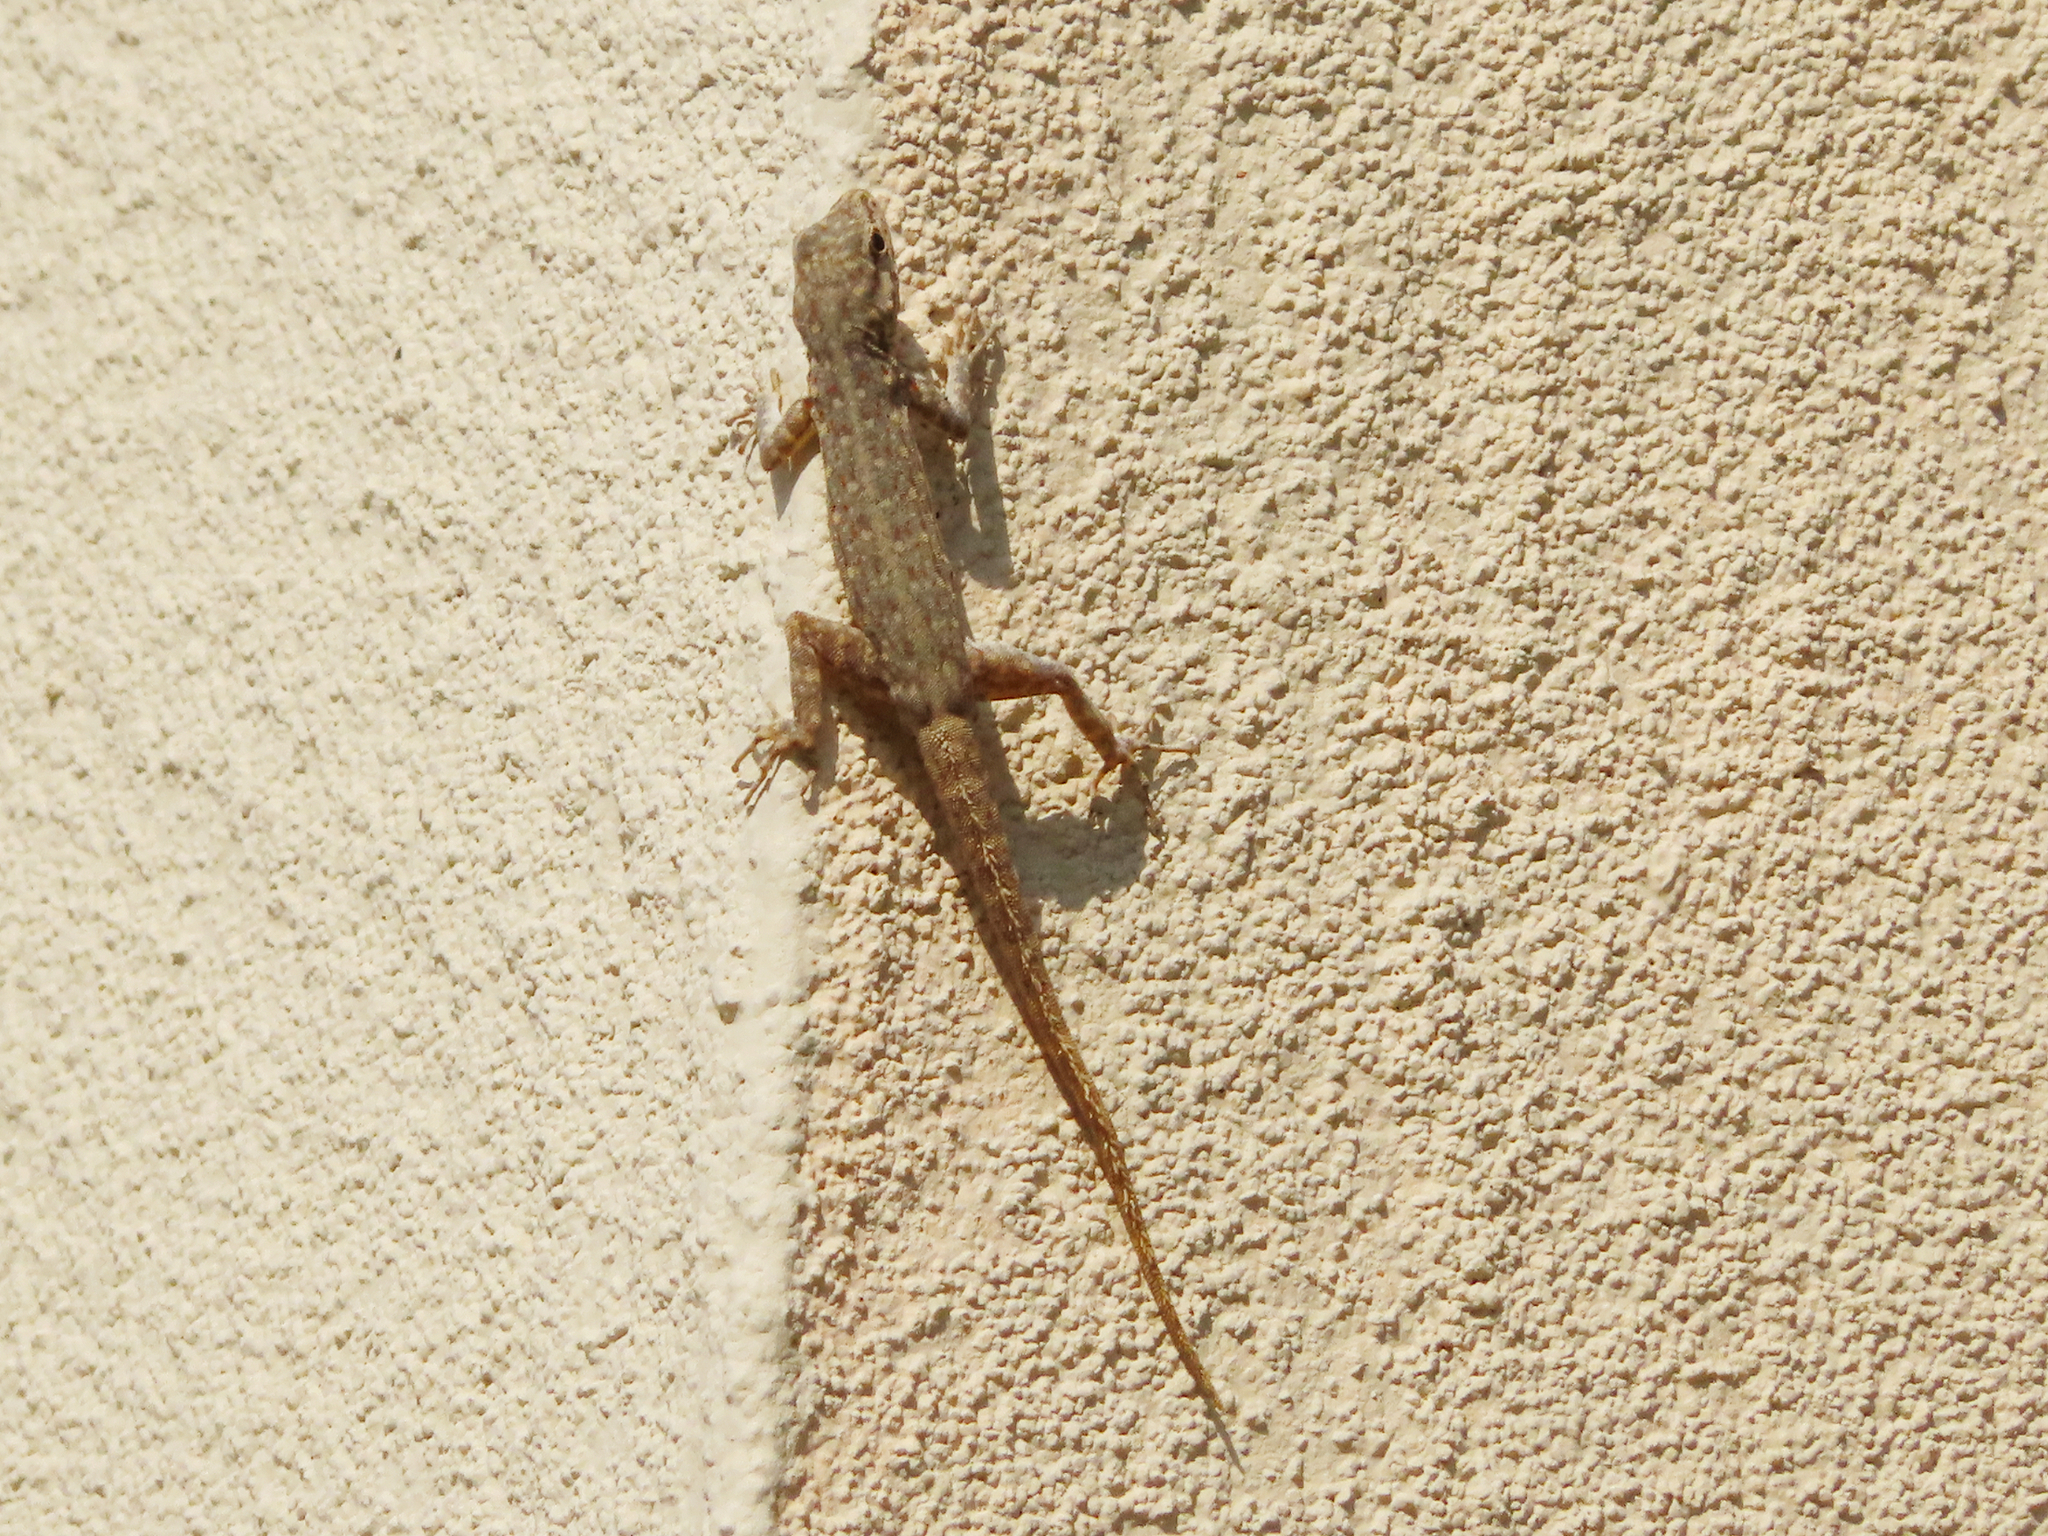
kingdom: Animalia
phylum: Chordata
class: Squamata
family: Sphaerodactylidae
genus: Pristurus
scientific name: Pristurus rupestris
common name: Blanford’s semaphore gecko
